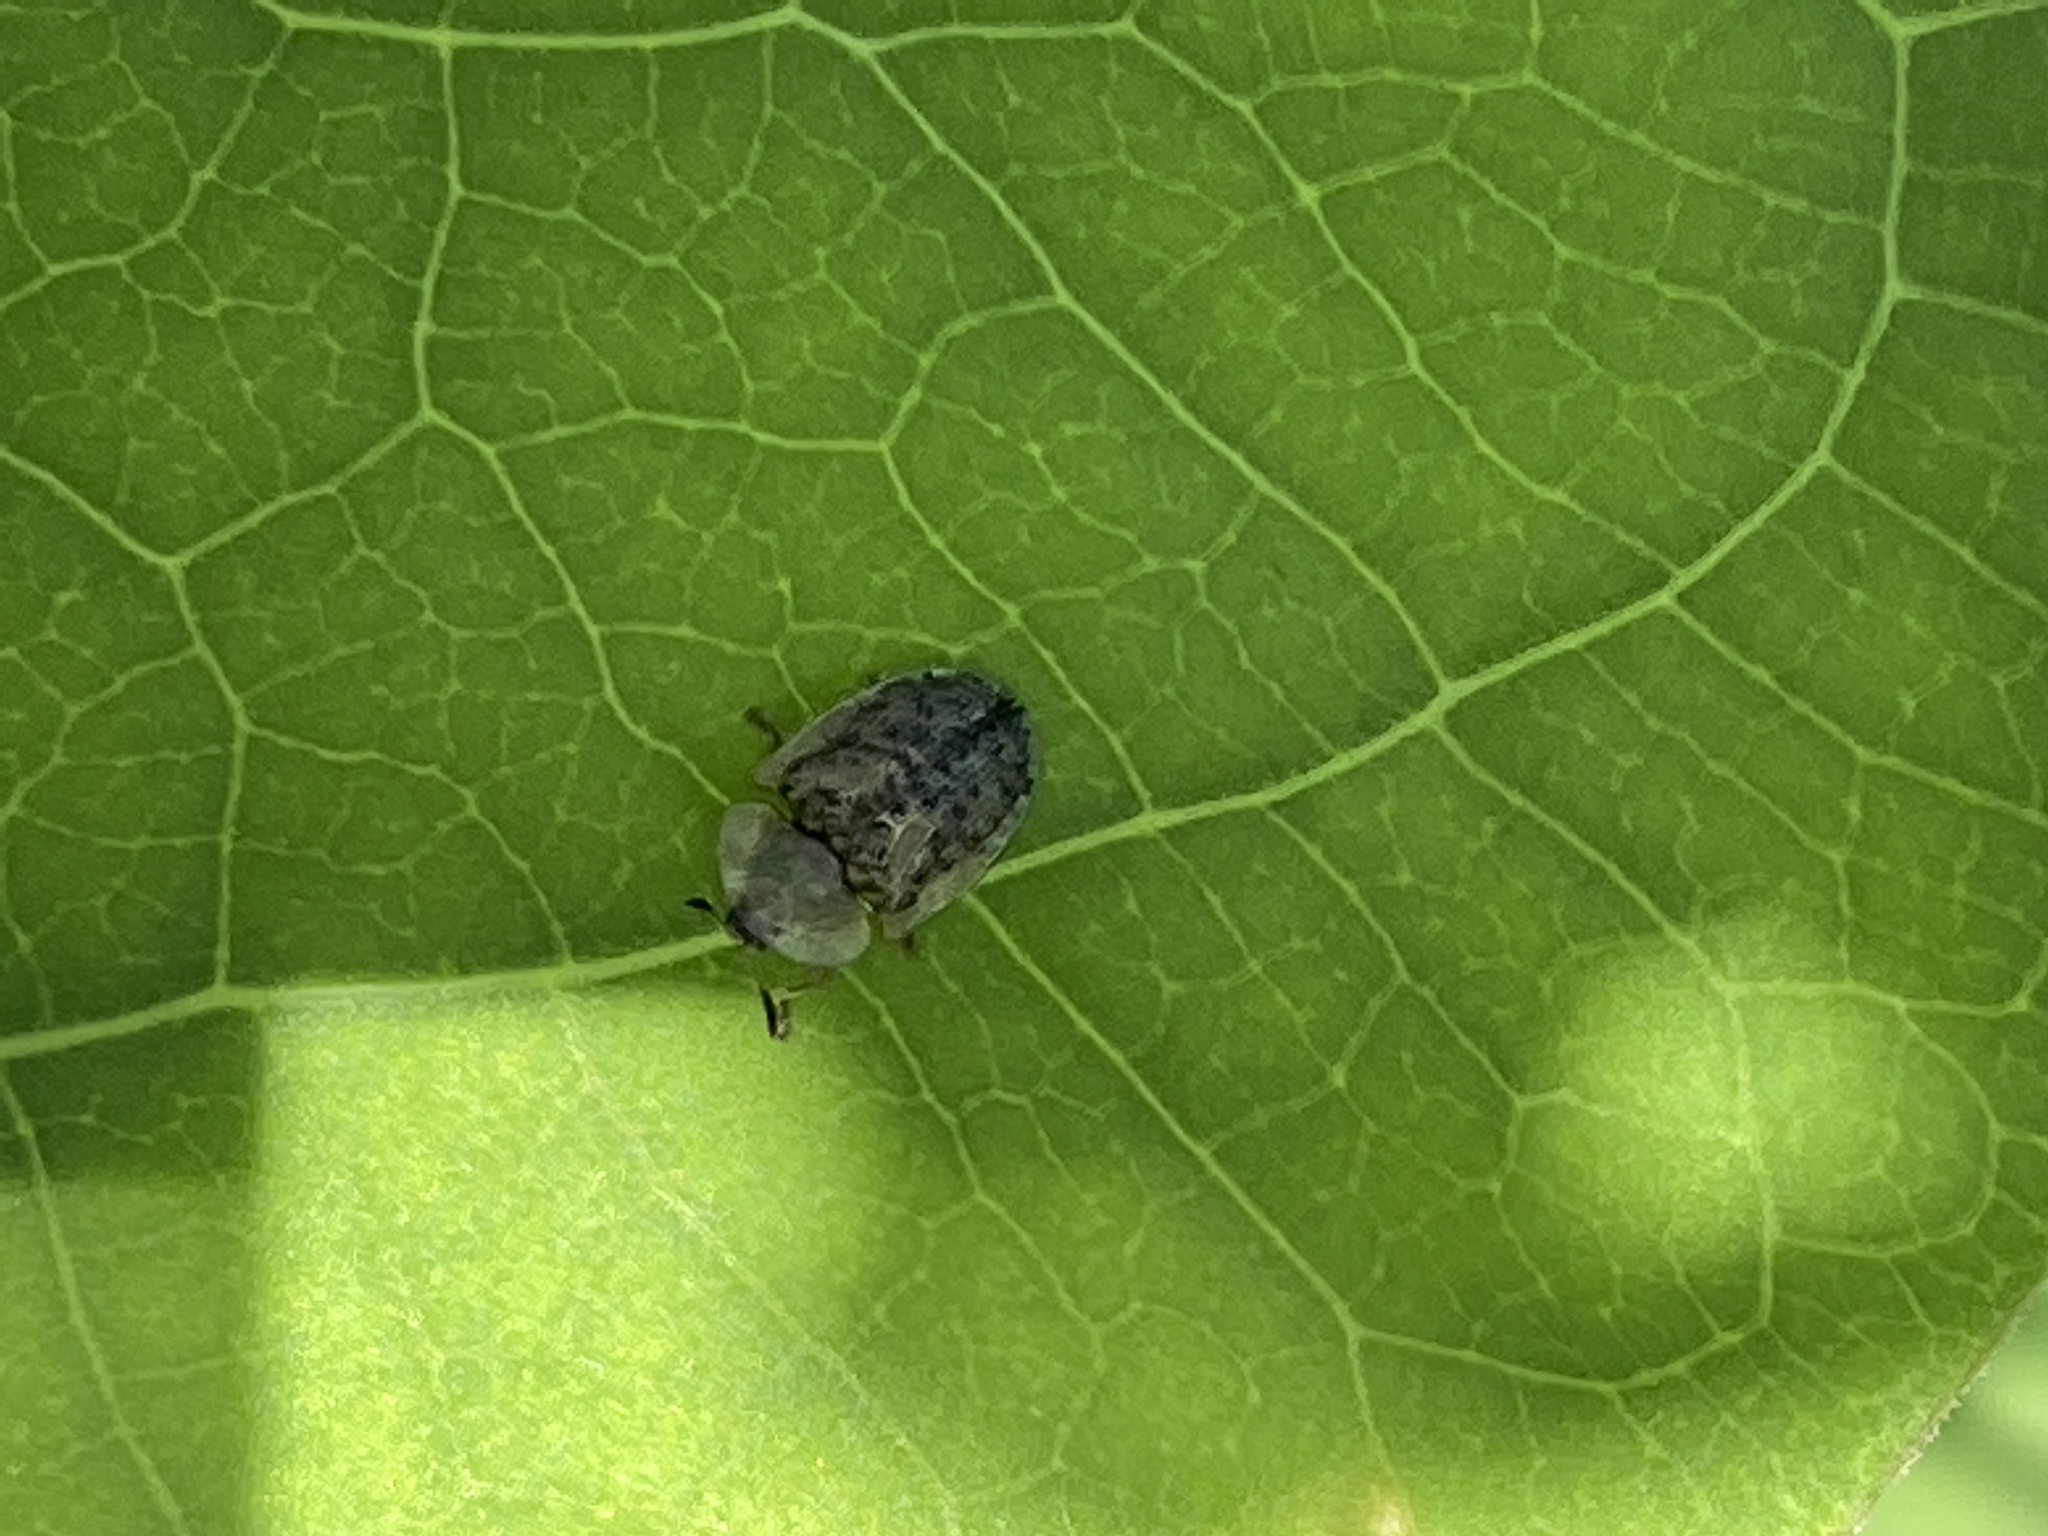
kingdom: Animalia
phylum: Arthropoda
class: Insecta
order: Coleoptera
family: Chrysomelidae
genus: Cassida
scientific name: Cassida nebulosa
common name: Beet tortoise beetle
